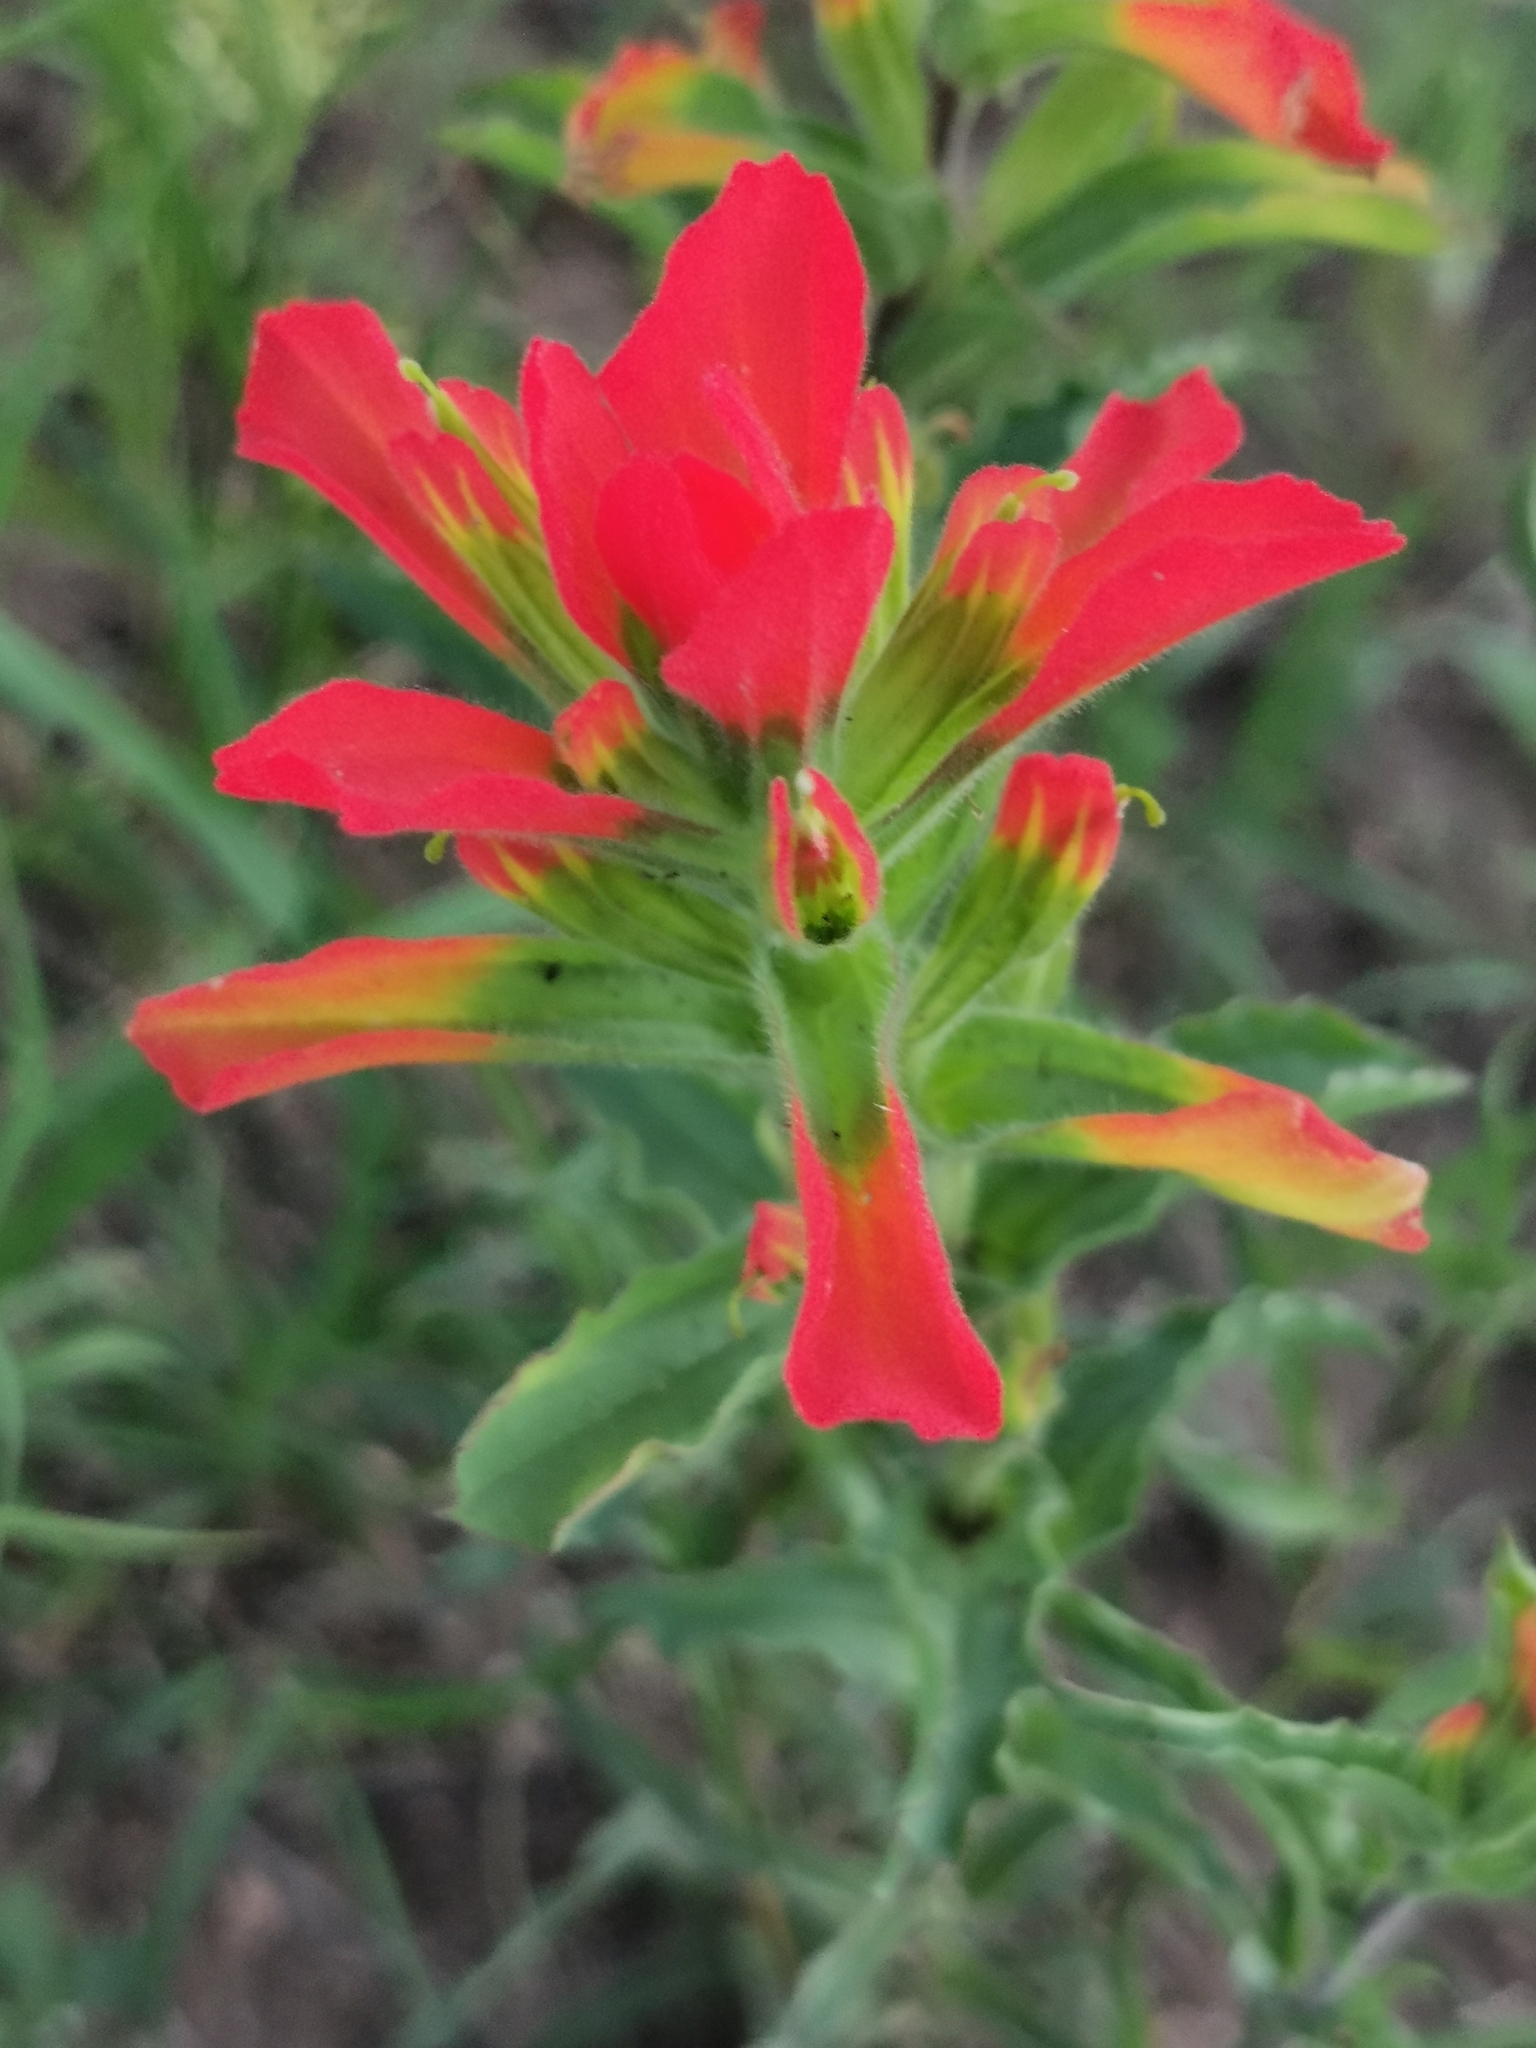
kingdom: Plantae
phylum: Tracheophyta
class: Magnoliopsida
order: Lamiales
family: Orobanchaceae
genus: Castilleja
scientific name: Castilleja scorzonerifolia
